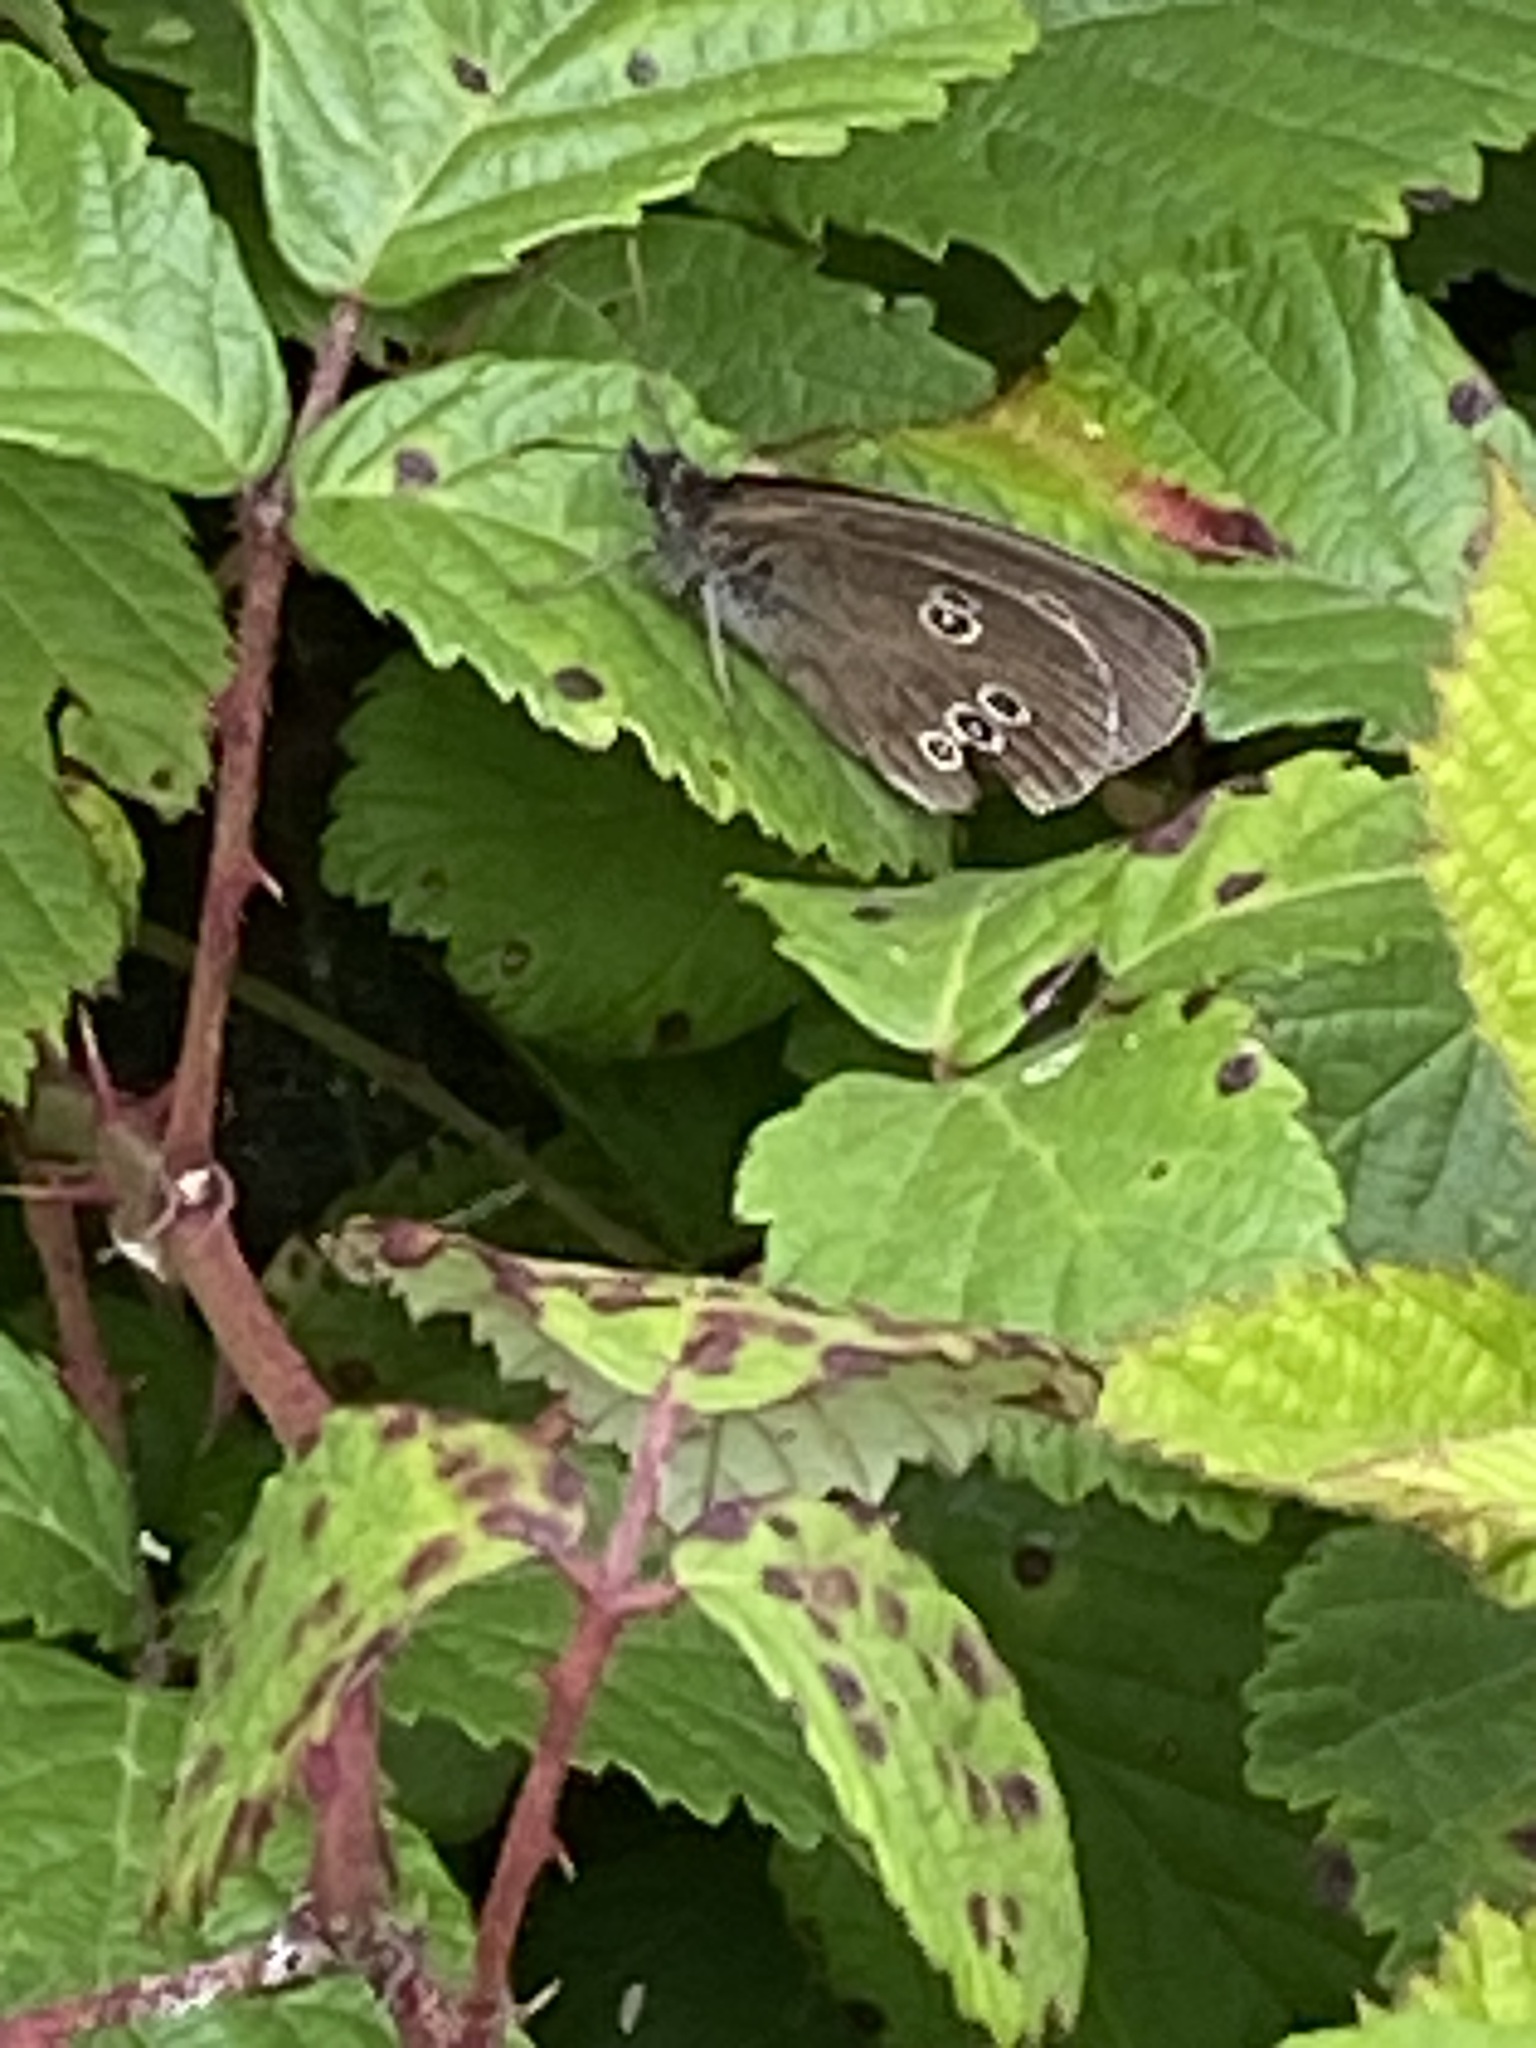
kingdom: Animalia
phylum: Arthropoda
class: Insecta
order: Lepidoptera
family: Nymphalidae
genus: Aphantopus
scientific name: Aphantopus hyperantus
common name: Ringlet
